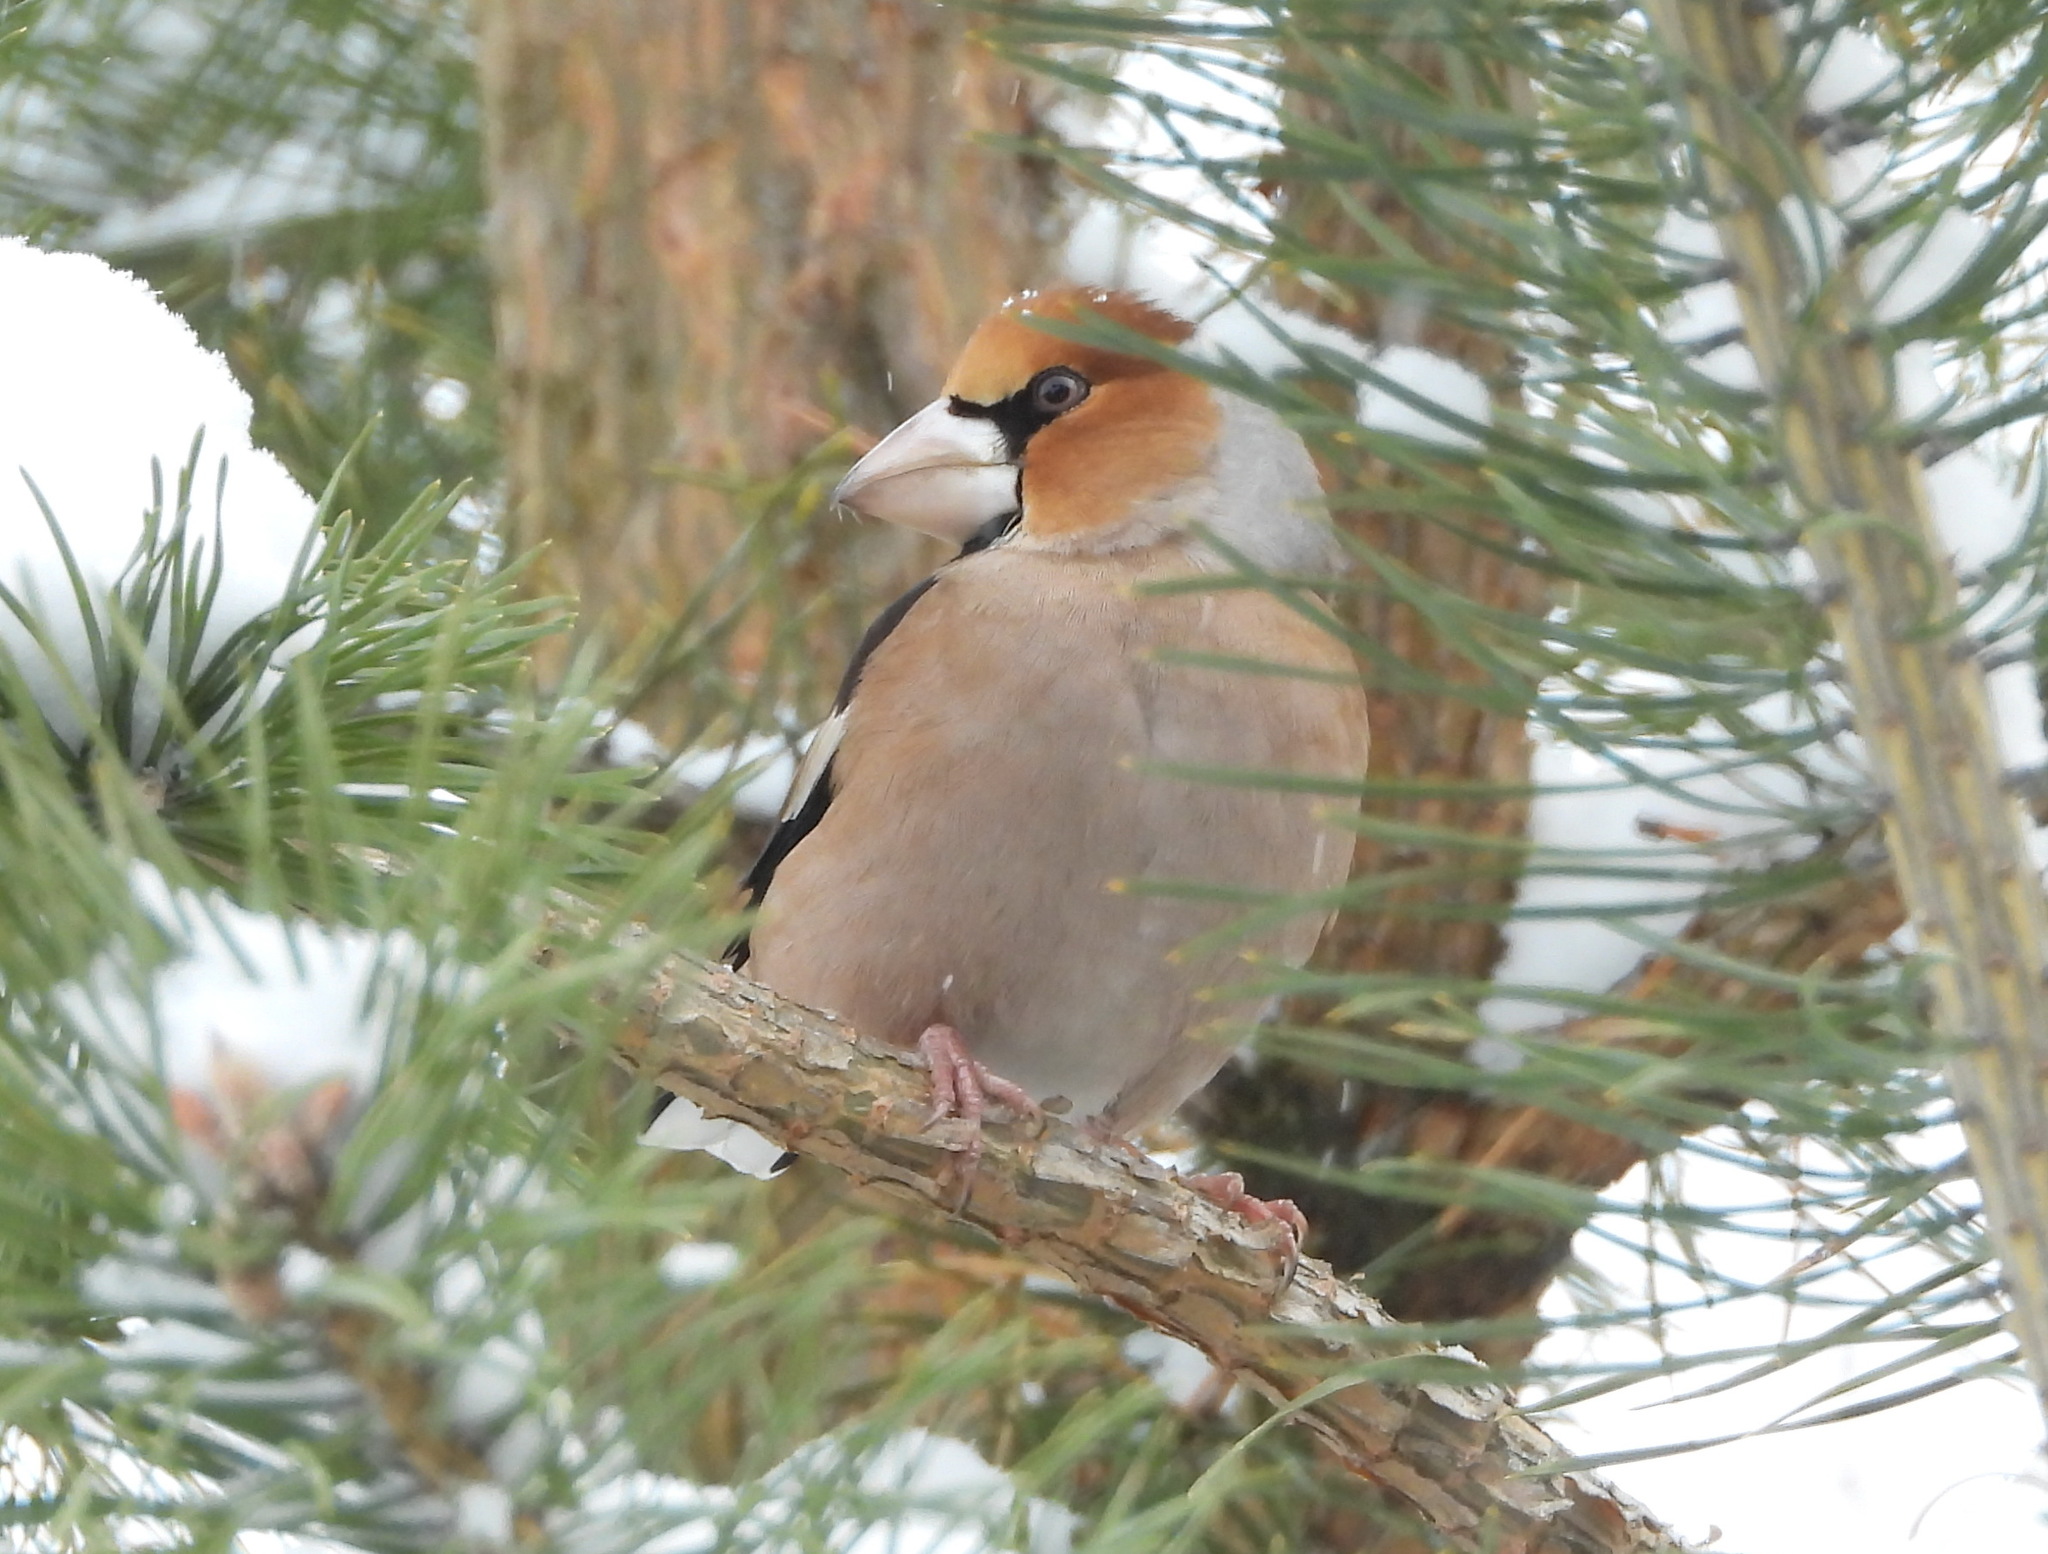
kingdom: Animalia
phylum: Chordata
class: Aves
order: Passeriformes
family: Fringillidae
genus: Coccothraustes
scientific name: Coccothraustes coccothraustes
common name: Hawfinch
